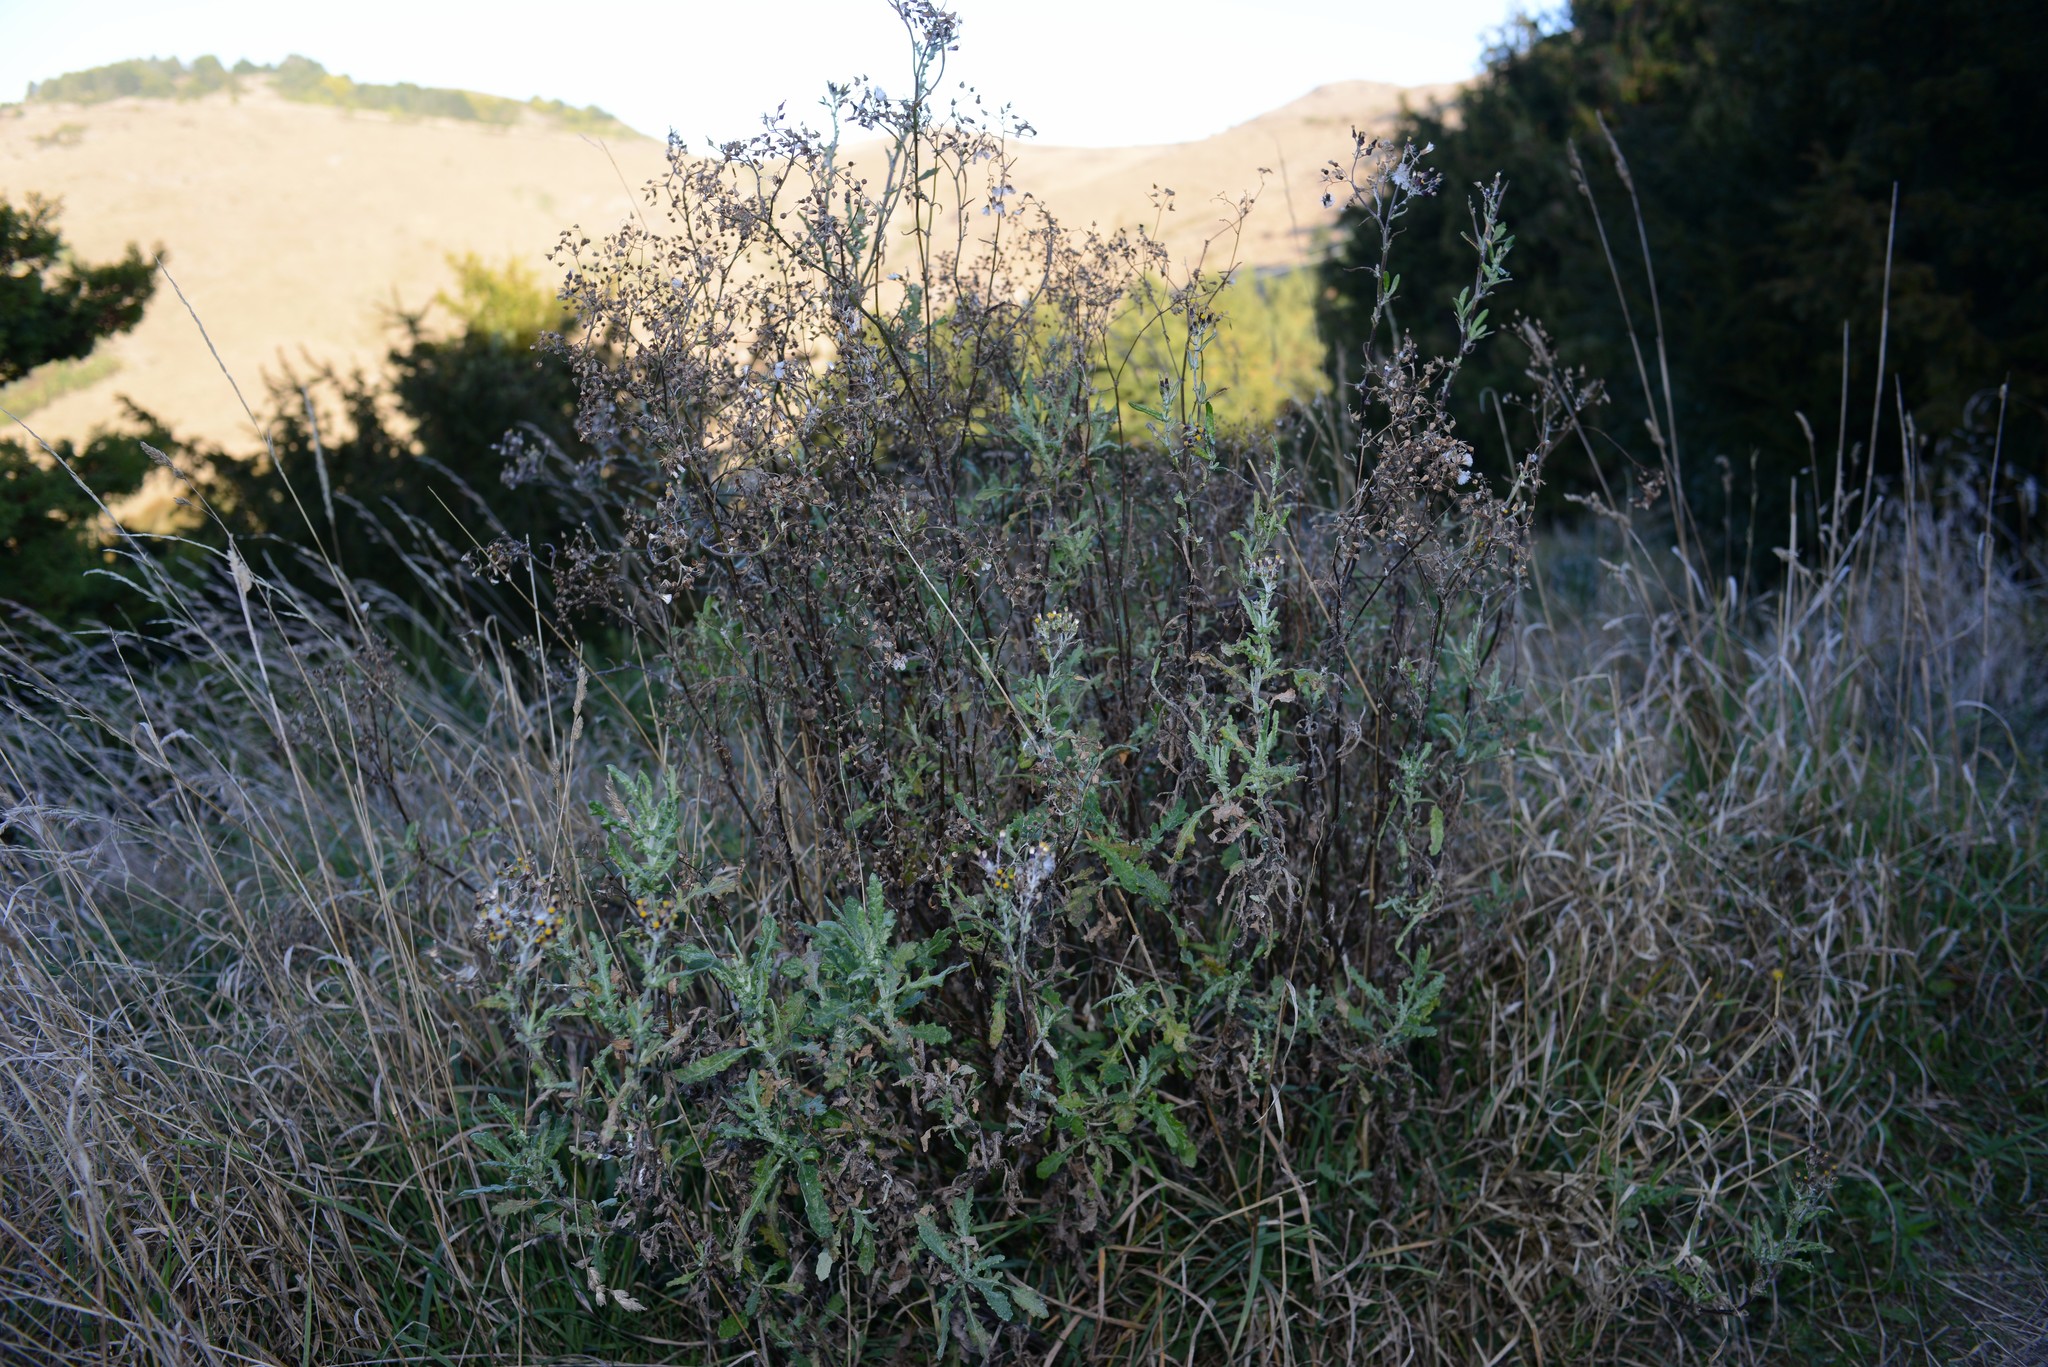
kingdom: Plantae
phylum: Tracheophyta
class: Magnoliopsida
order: Asterales
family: Asteraceae
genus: Senecio
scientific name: Senecio glomeratus
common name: Cutleaf burnweed
